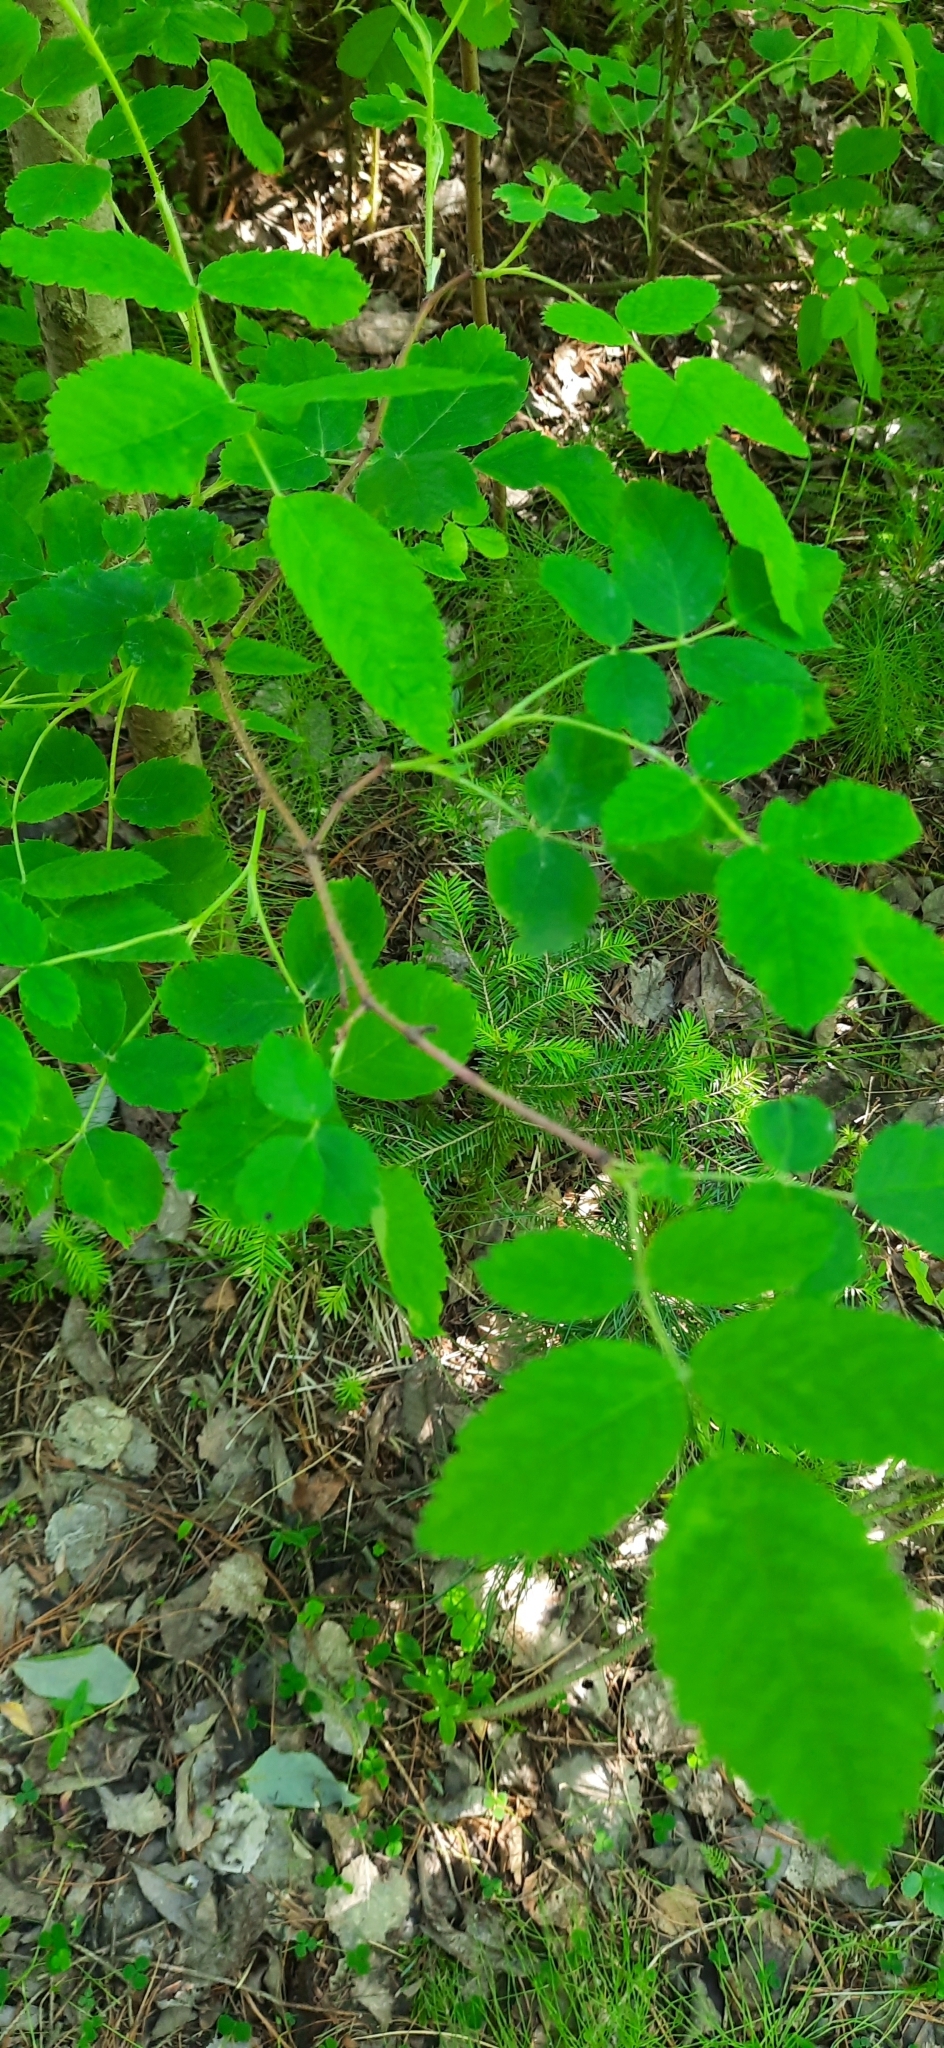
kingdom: Plantae
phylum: Tracheophyta
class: Magnoliopsida
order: Rosales
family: Rosaceae
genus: Rosa
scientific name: Rosa acicularis
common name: Prickly rose
